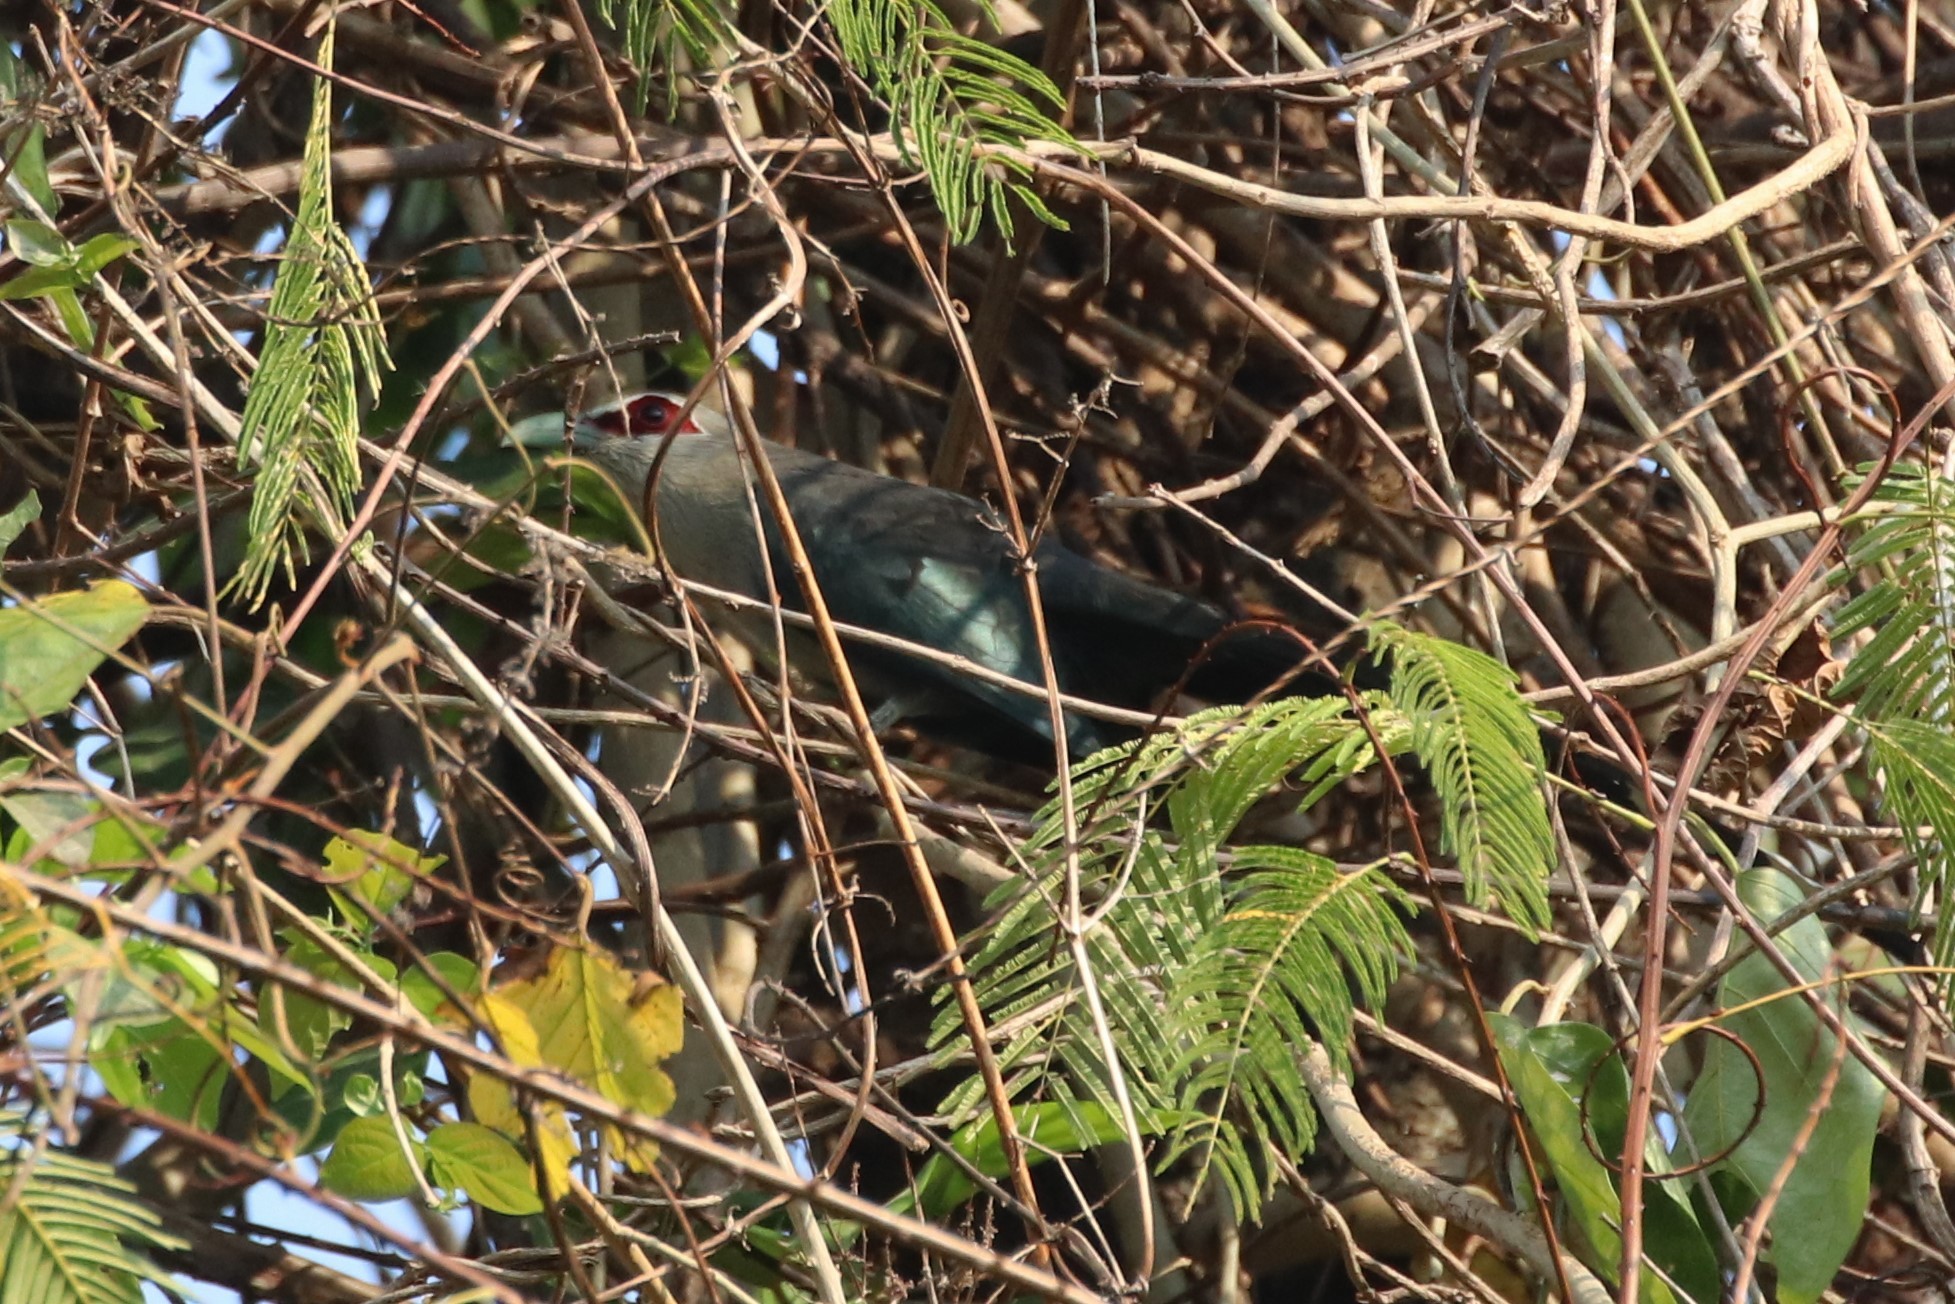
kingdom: Animalia
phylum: Chordata
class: Aves
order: Cuculiformes
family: Cuculidae
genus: Rhopodytes
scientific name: Rhopodytes tristis
